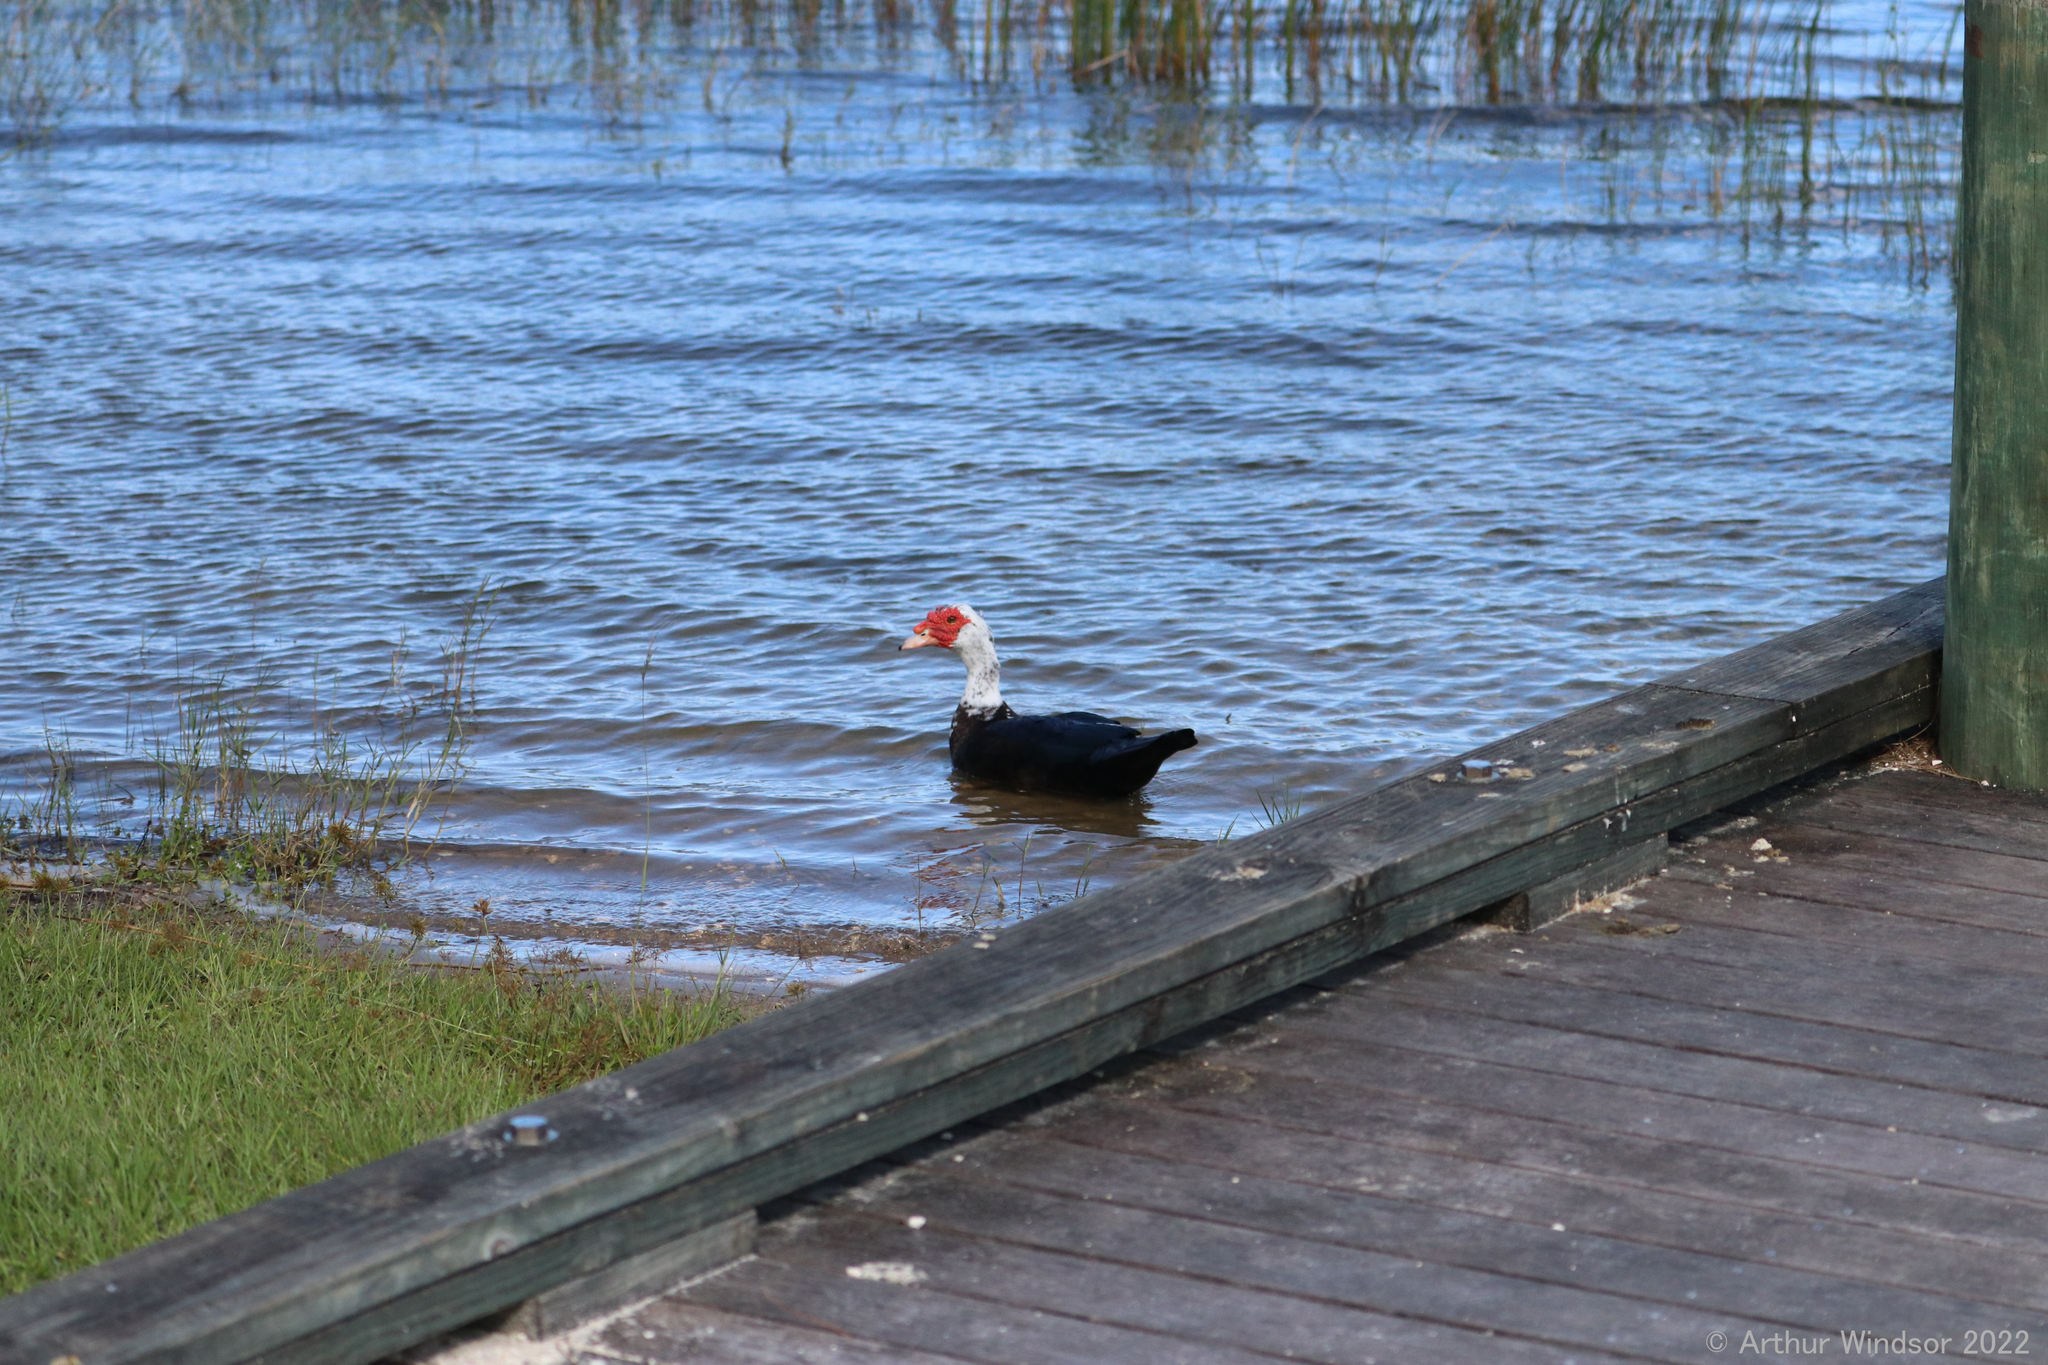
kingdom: Animalia
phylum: Chordata
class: Aves
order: Anseriformes
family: Anatidae
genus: Cairina
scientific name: Cairina moschata
